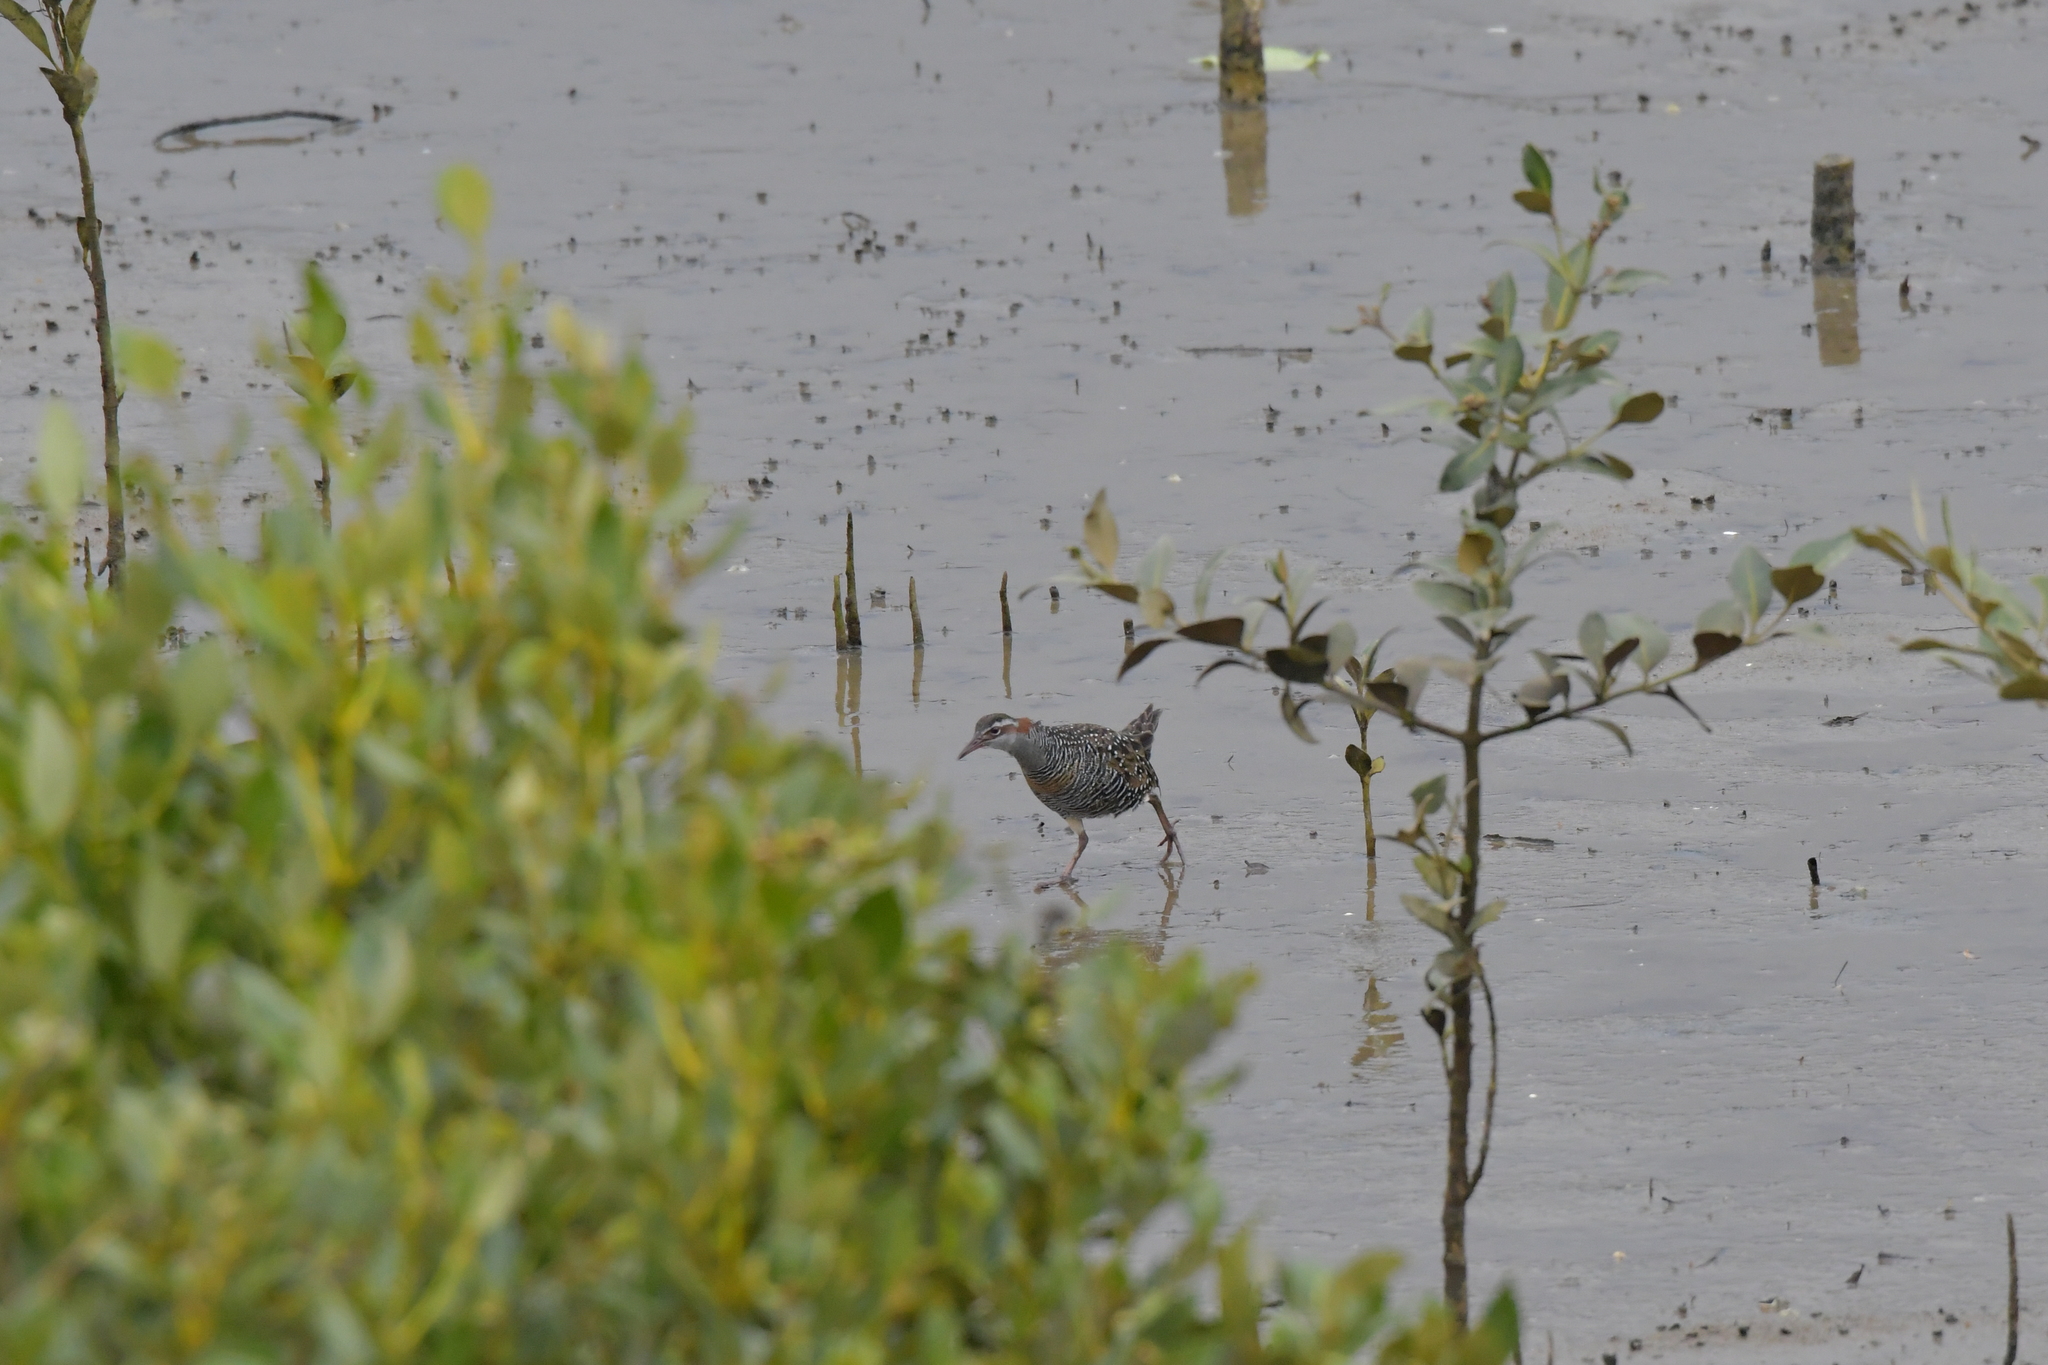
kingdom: Animalia
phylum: Chordata
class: Aves
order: Gruiformes
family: Rallidae
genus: Gallirallus
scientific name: Gallirallus philippensis
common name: Buff-banded rail
